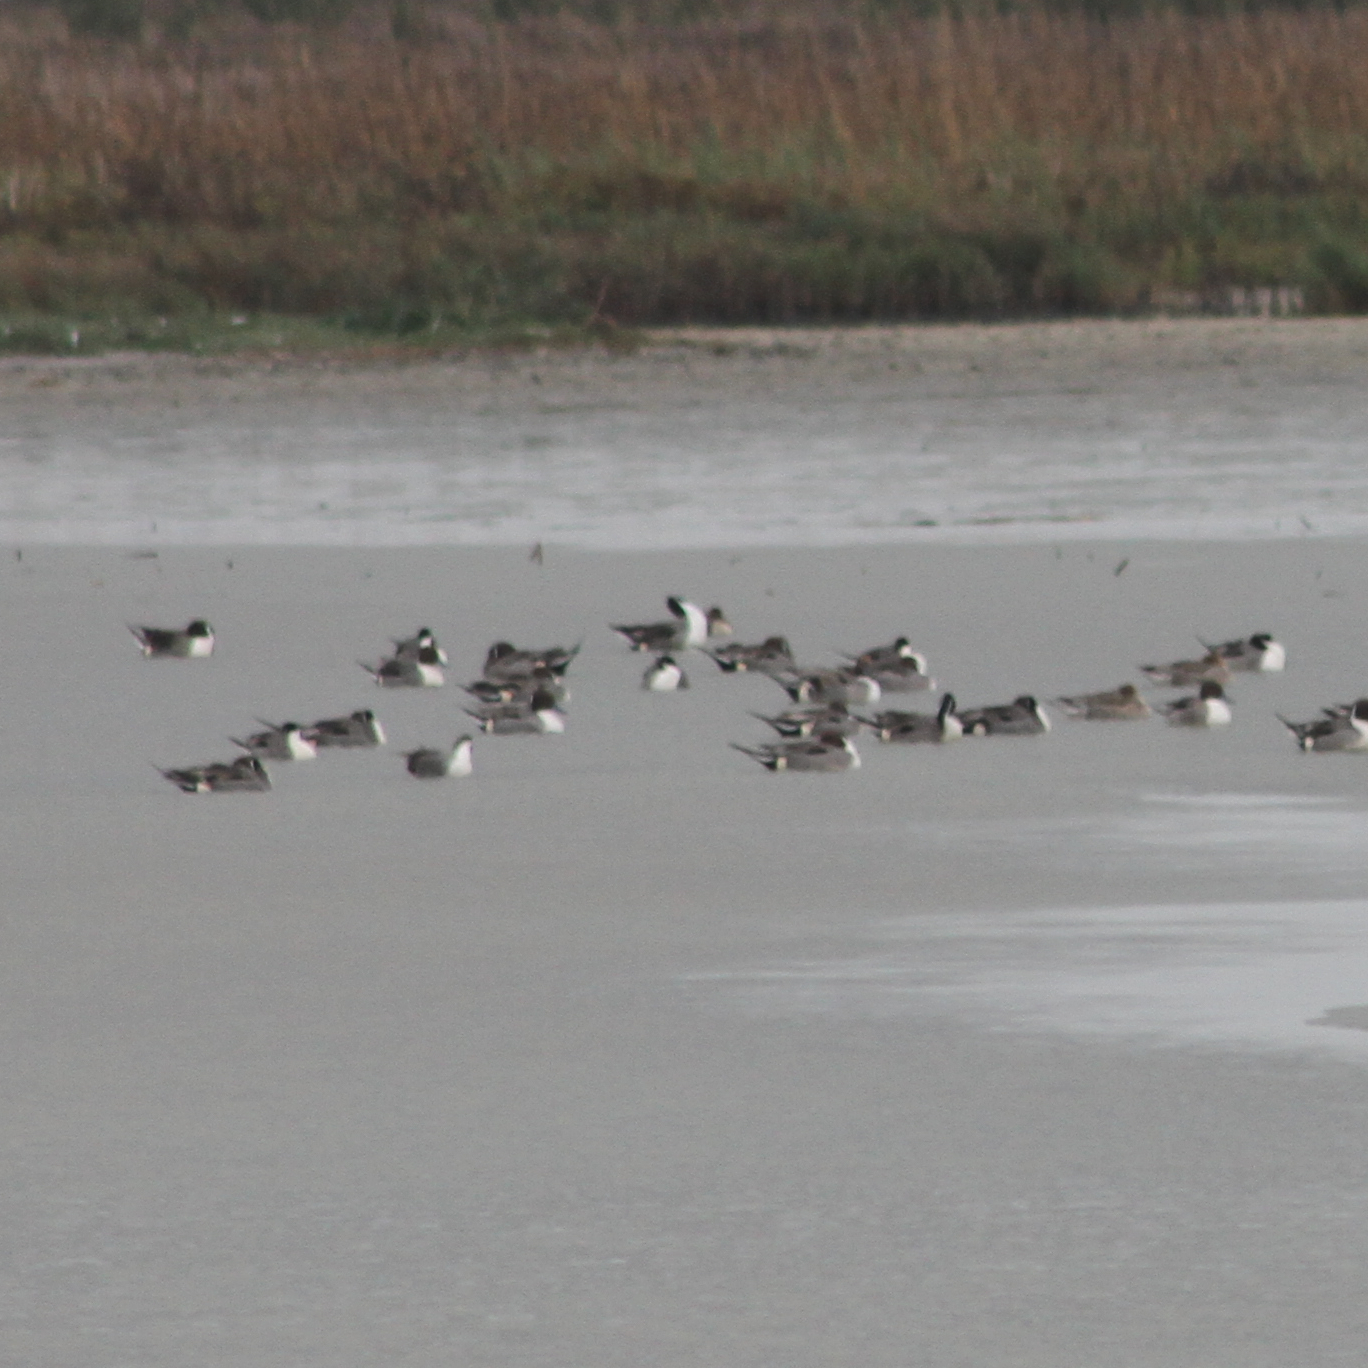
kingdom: Animalia
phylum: Chordata
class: Aves
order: Anseriformes
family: Anatidae
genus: Anas
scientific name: Anas acuta
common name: Northern pintail
